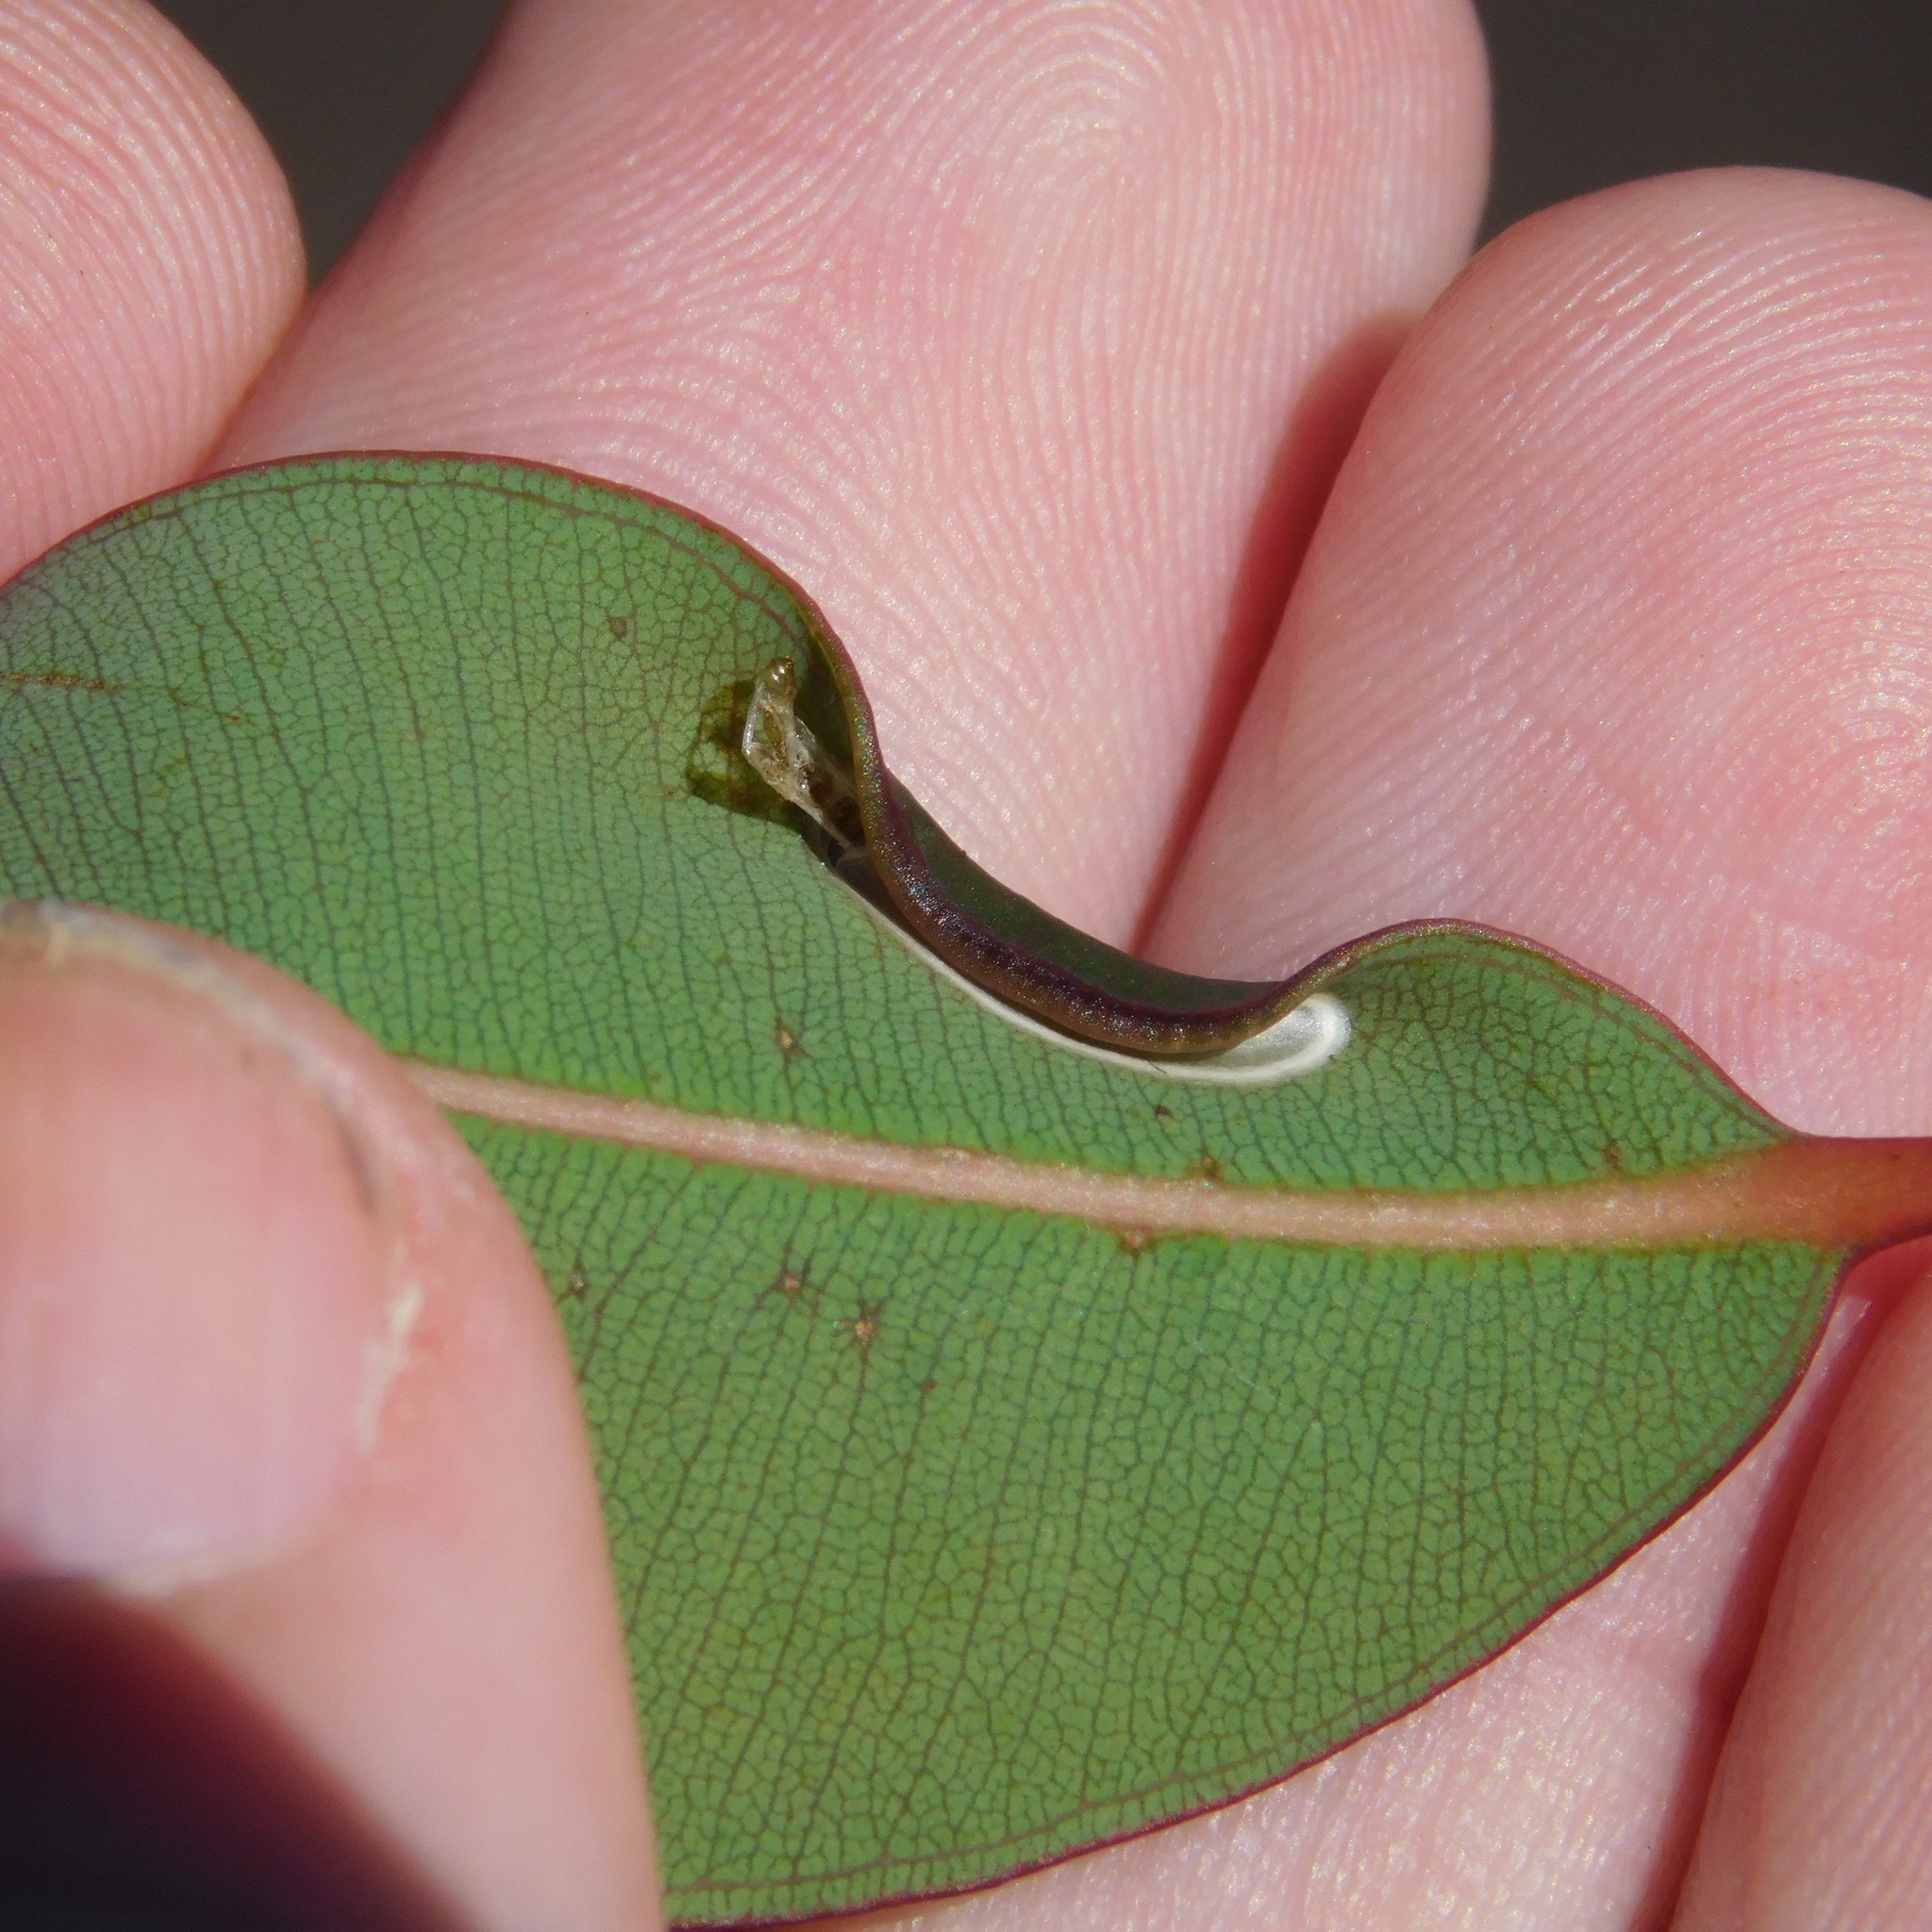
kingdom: Animalia
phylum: Arthropoda
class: Insecta
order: Lepidoptera
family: Gracillariidae
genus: Macarostola
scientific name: Macarostola ida
